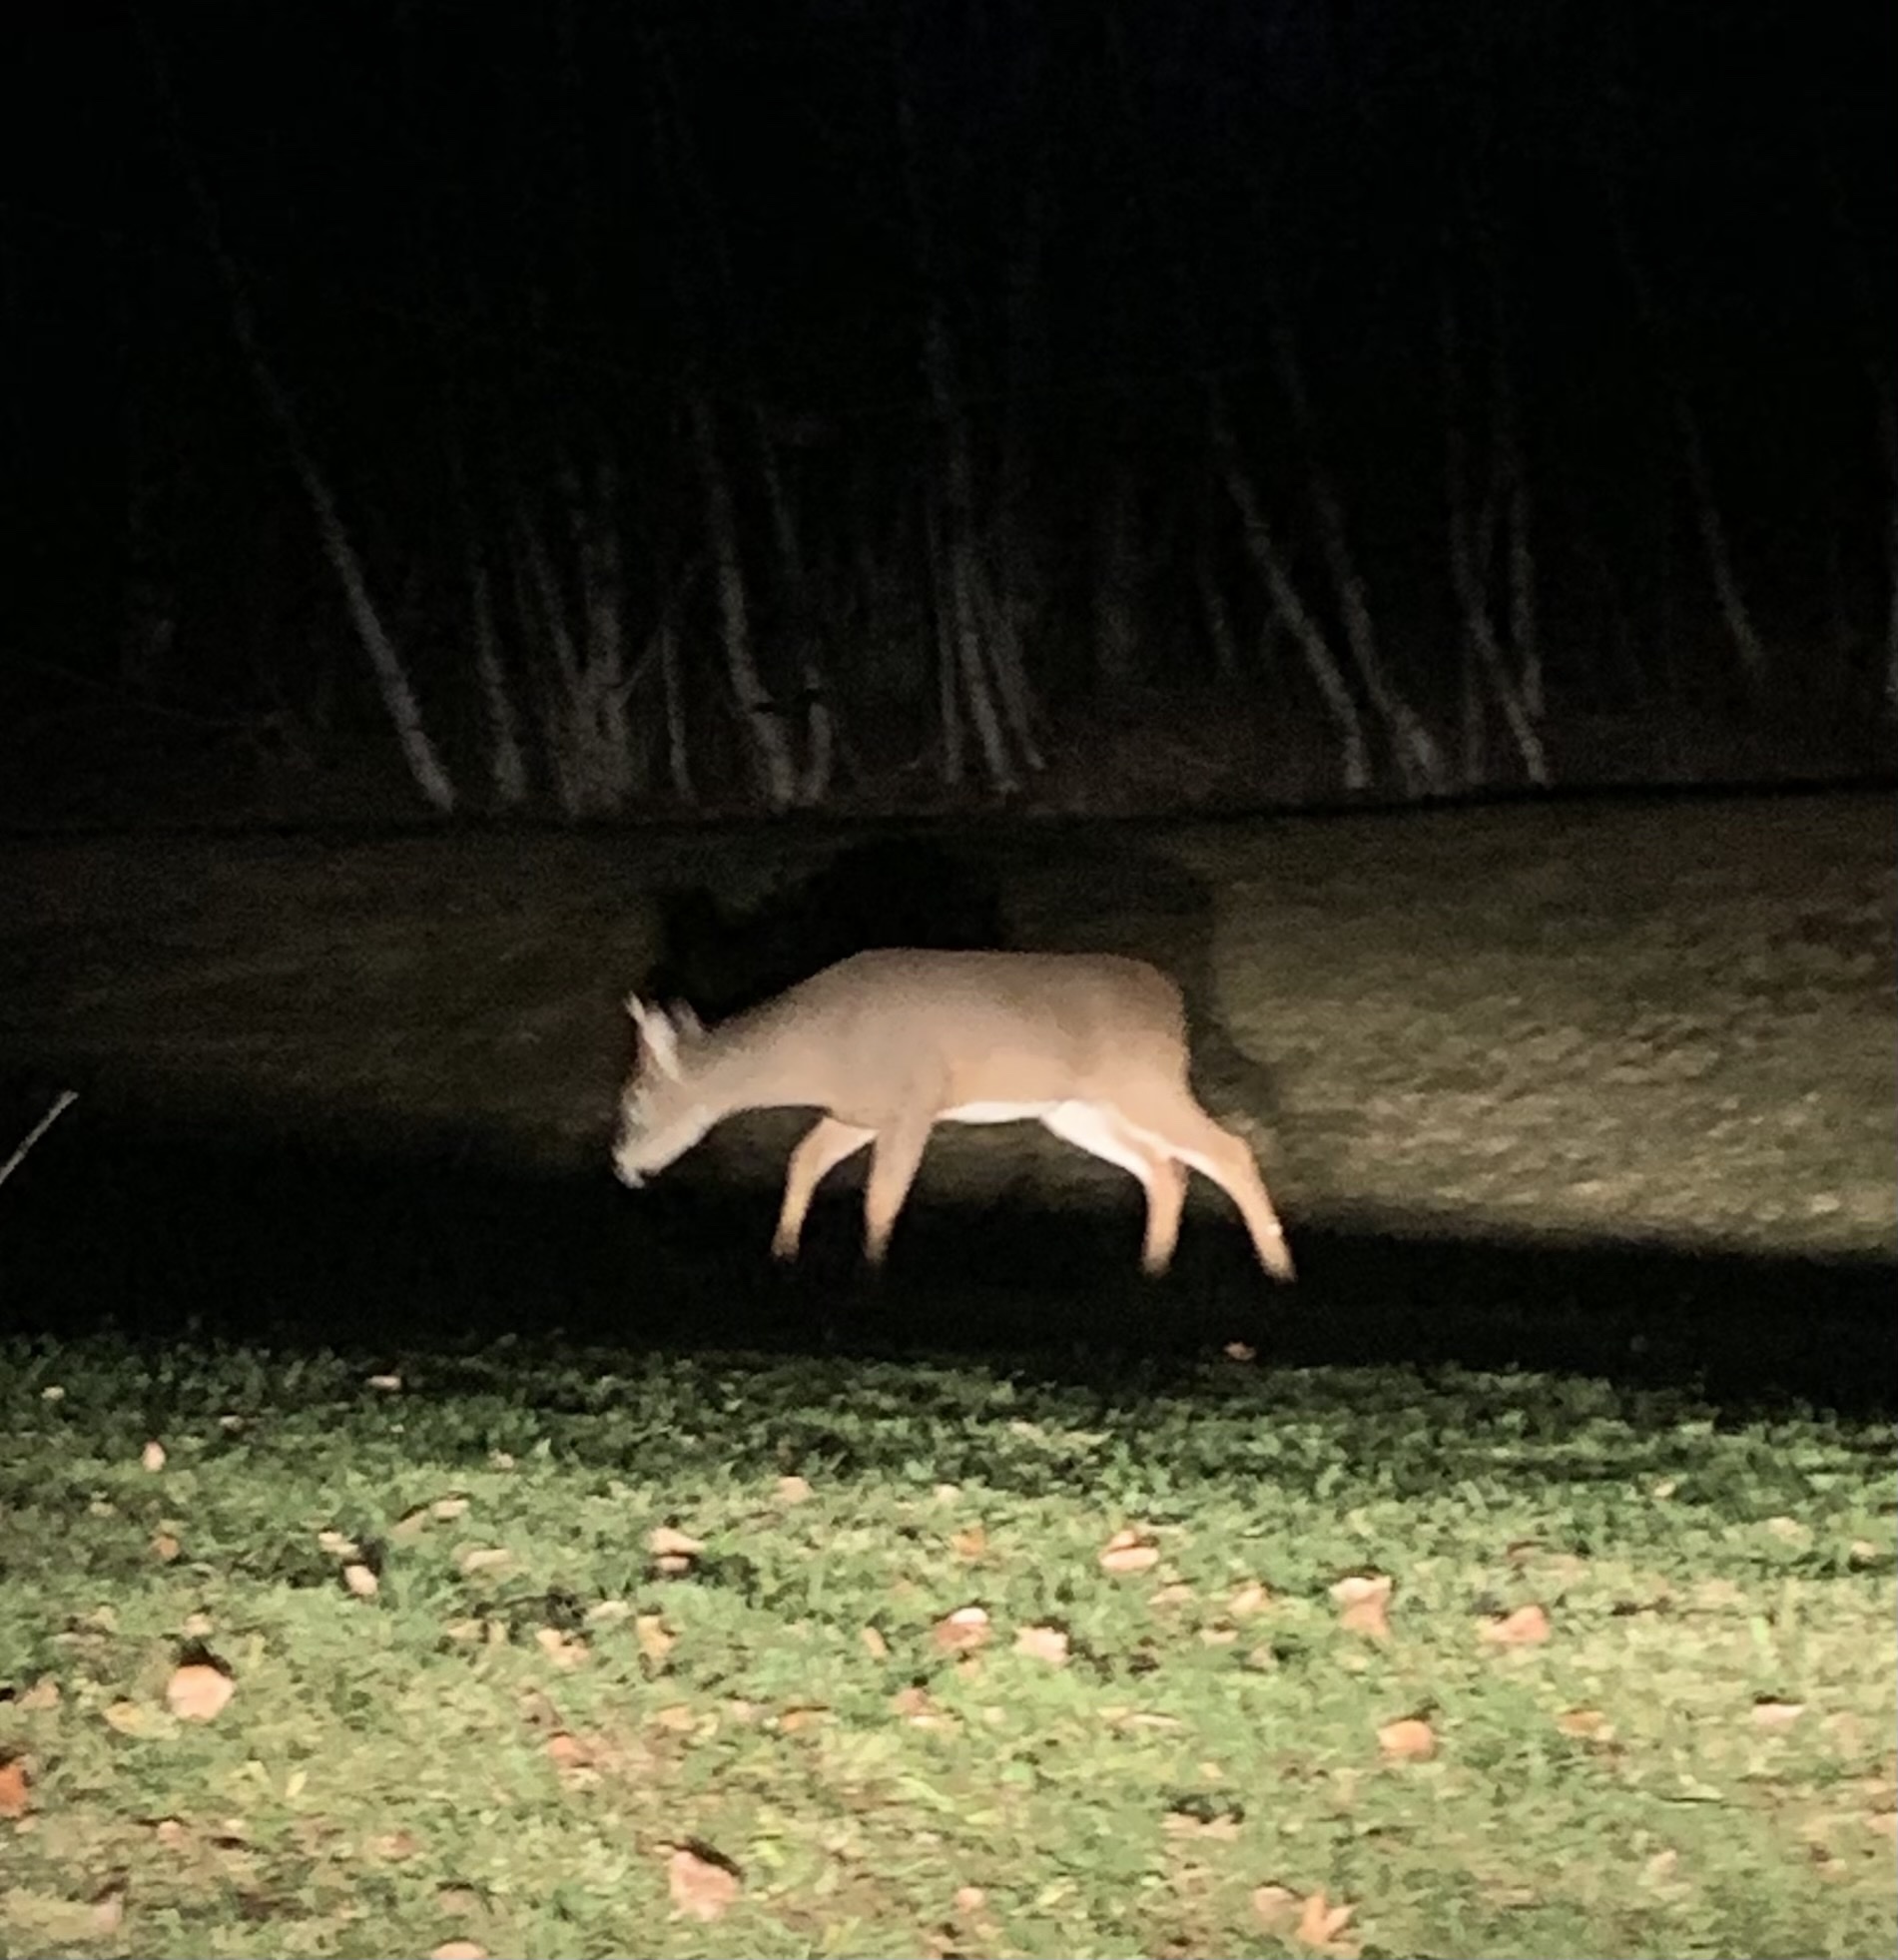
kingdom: Animalia
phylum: Chordata
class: Mammalia
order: Artiodactyla
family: Cervidae
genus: Odocoileus
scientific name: Odocoileus virginianus
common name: White-tailed deer
